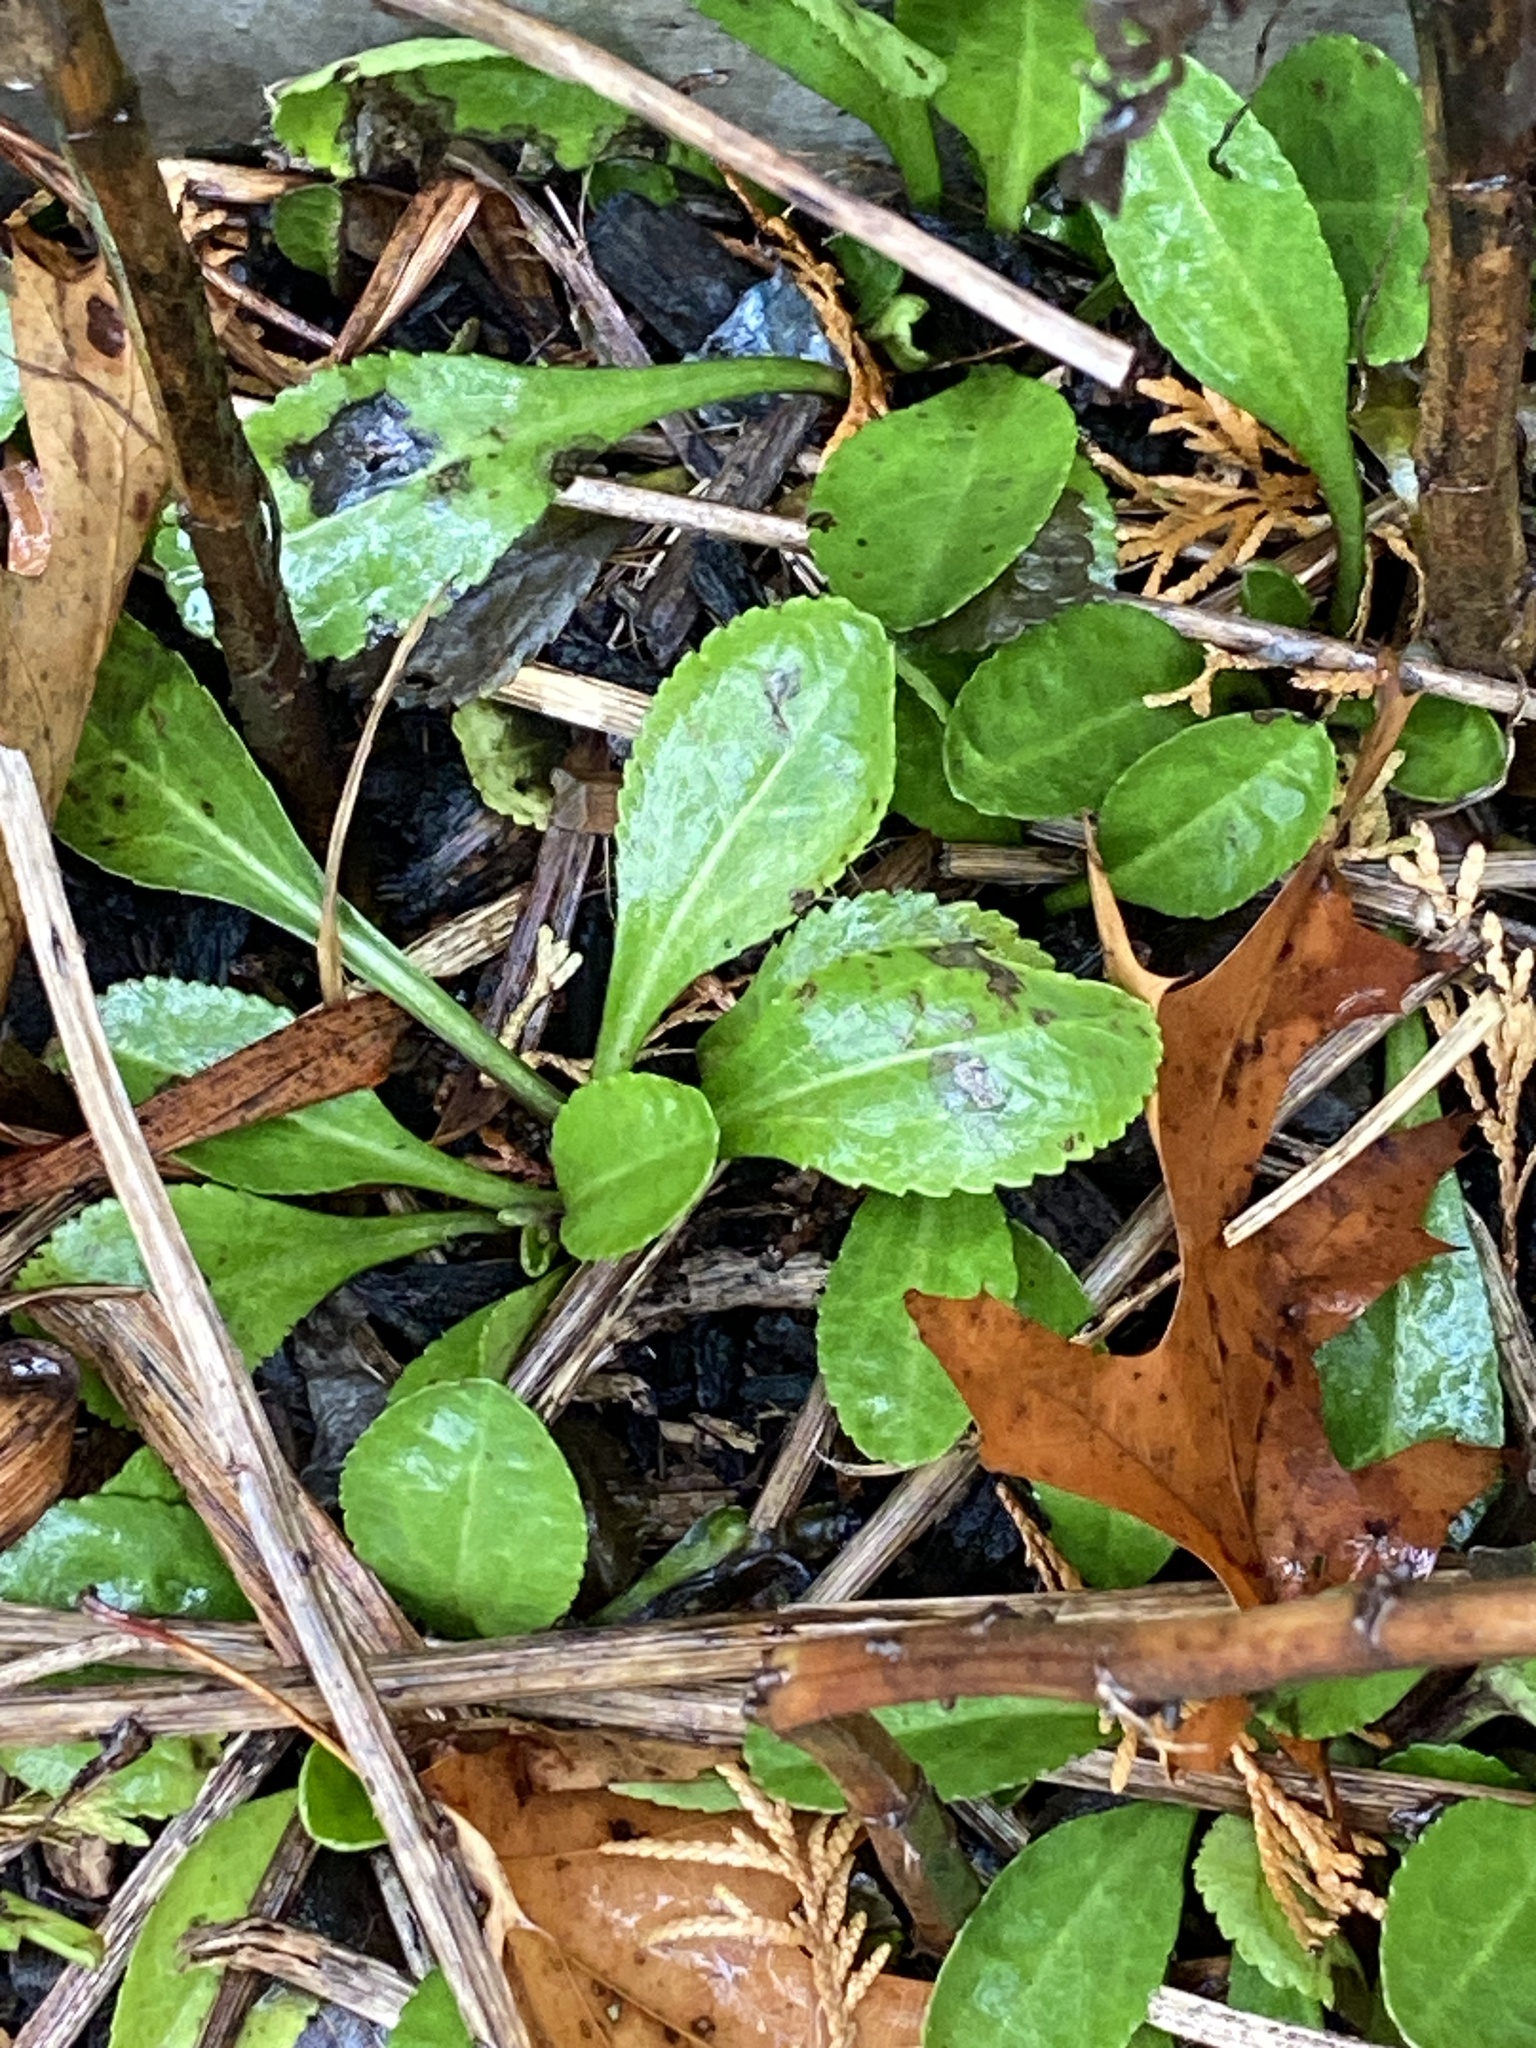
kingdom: Plantae
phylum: Tracheophyta
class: Magnoliopsida
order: Asterales
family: Asteraceae
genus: Leucanthemum
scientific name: Leucanthemum maximum
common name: Max chrysanthemum
